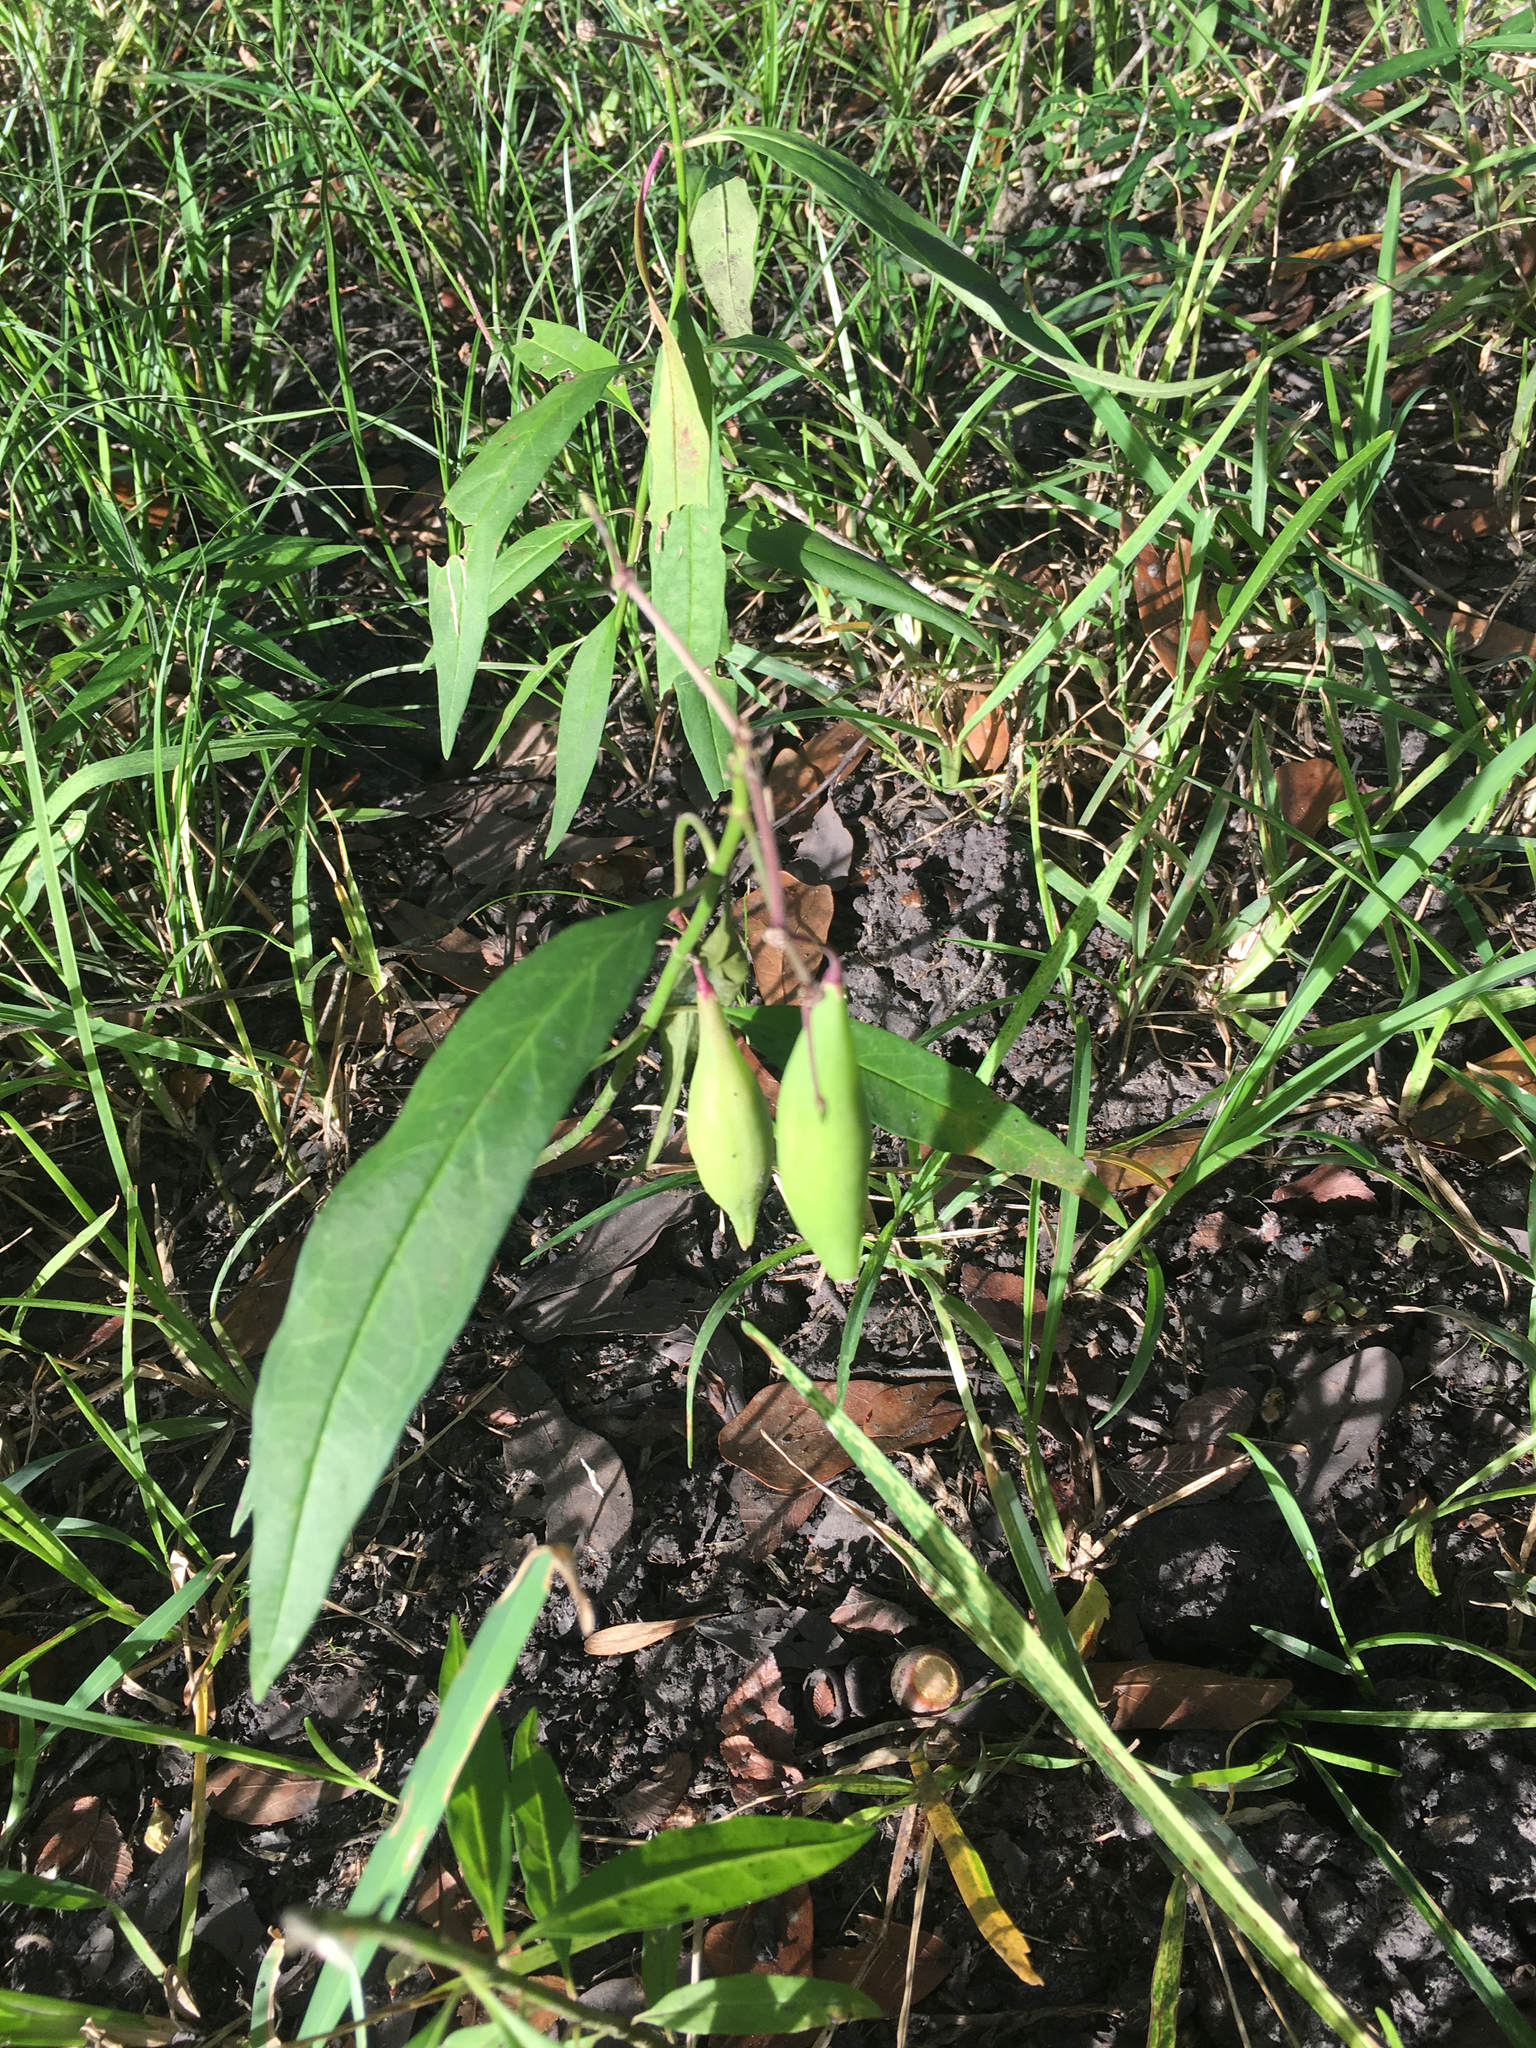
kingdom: Plantae
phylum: Tracheophyta
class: Magnoliopsida
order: Gentianales
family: Apocynaceae
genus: Asclepias
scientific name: Asclepias perennis
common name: Smooth-seed milkweed
